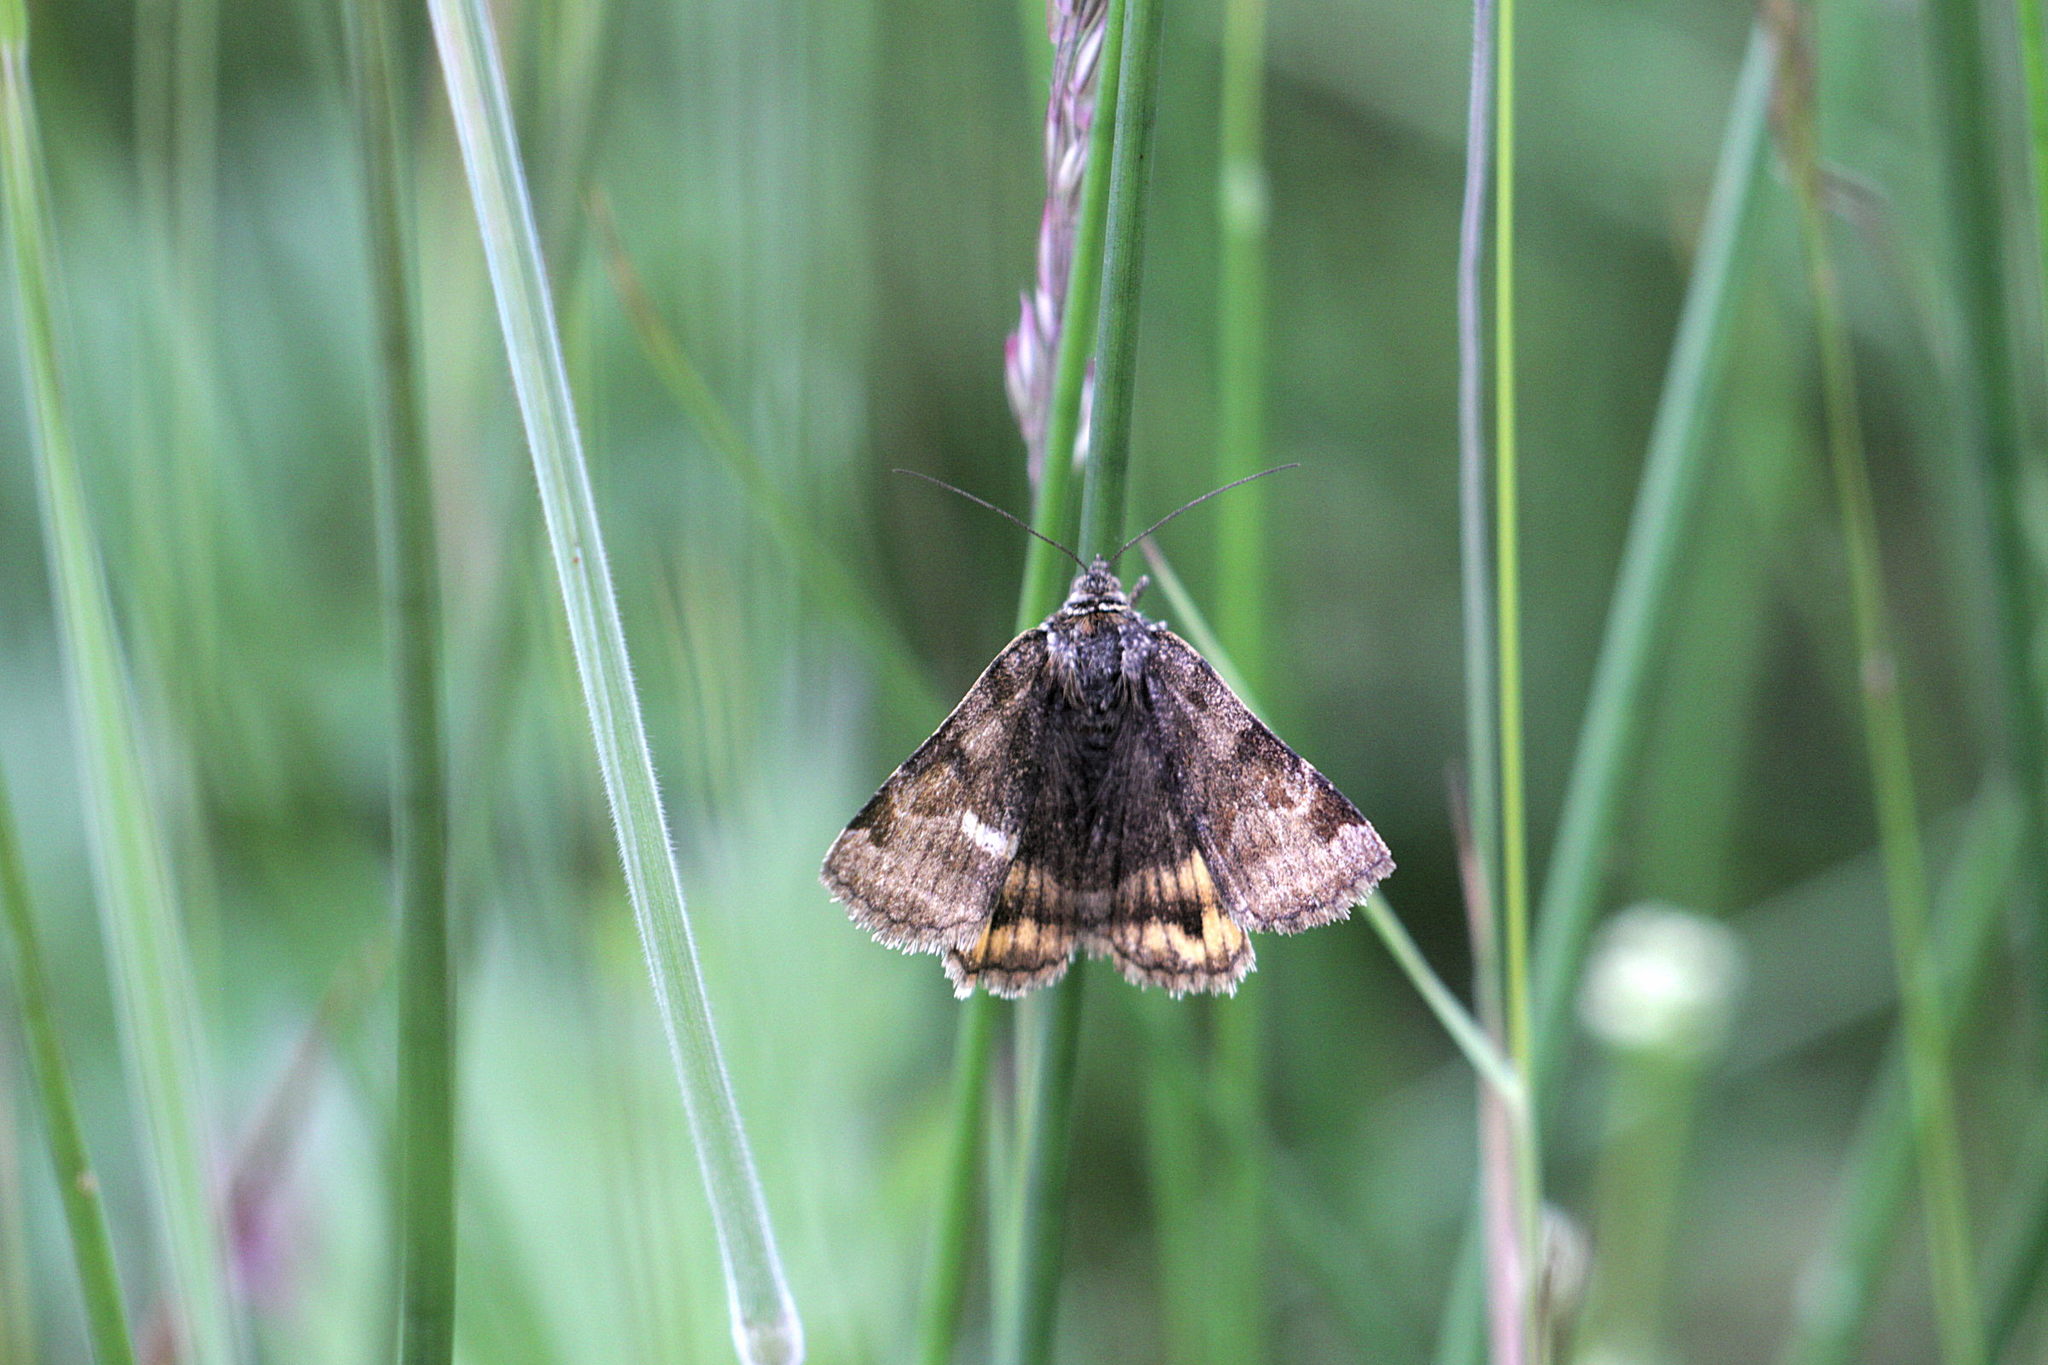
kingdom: Animalia
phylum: Arthropoda
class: Insecta
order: Lepidoptera
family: Erebidae
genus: Euclidia
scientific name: Euclidia glyphica
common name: Burnet companion
